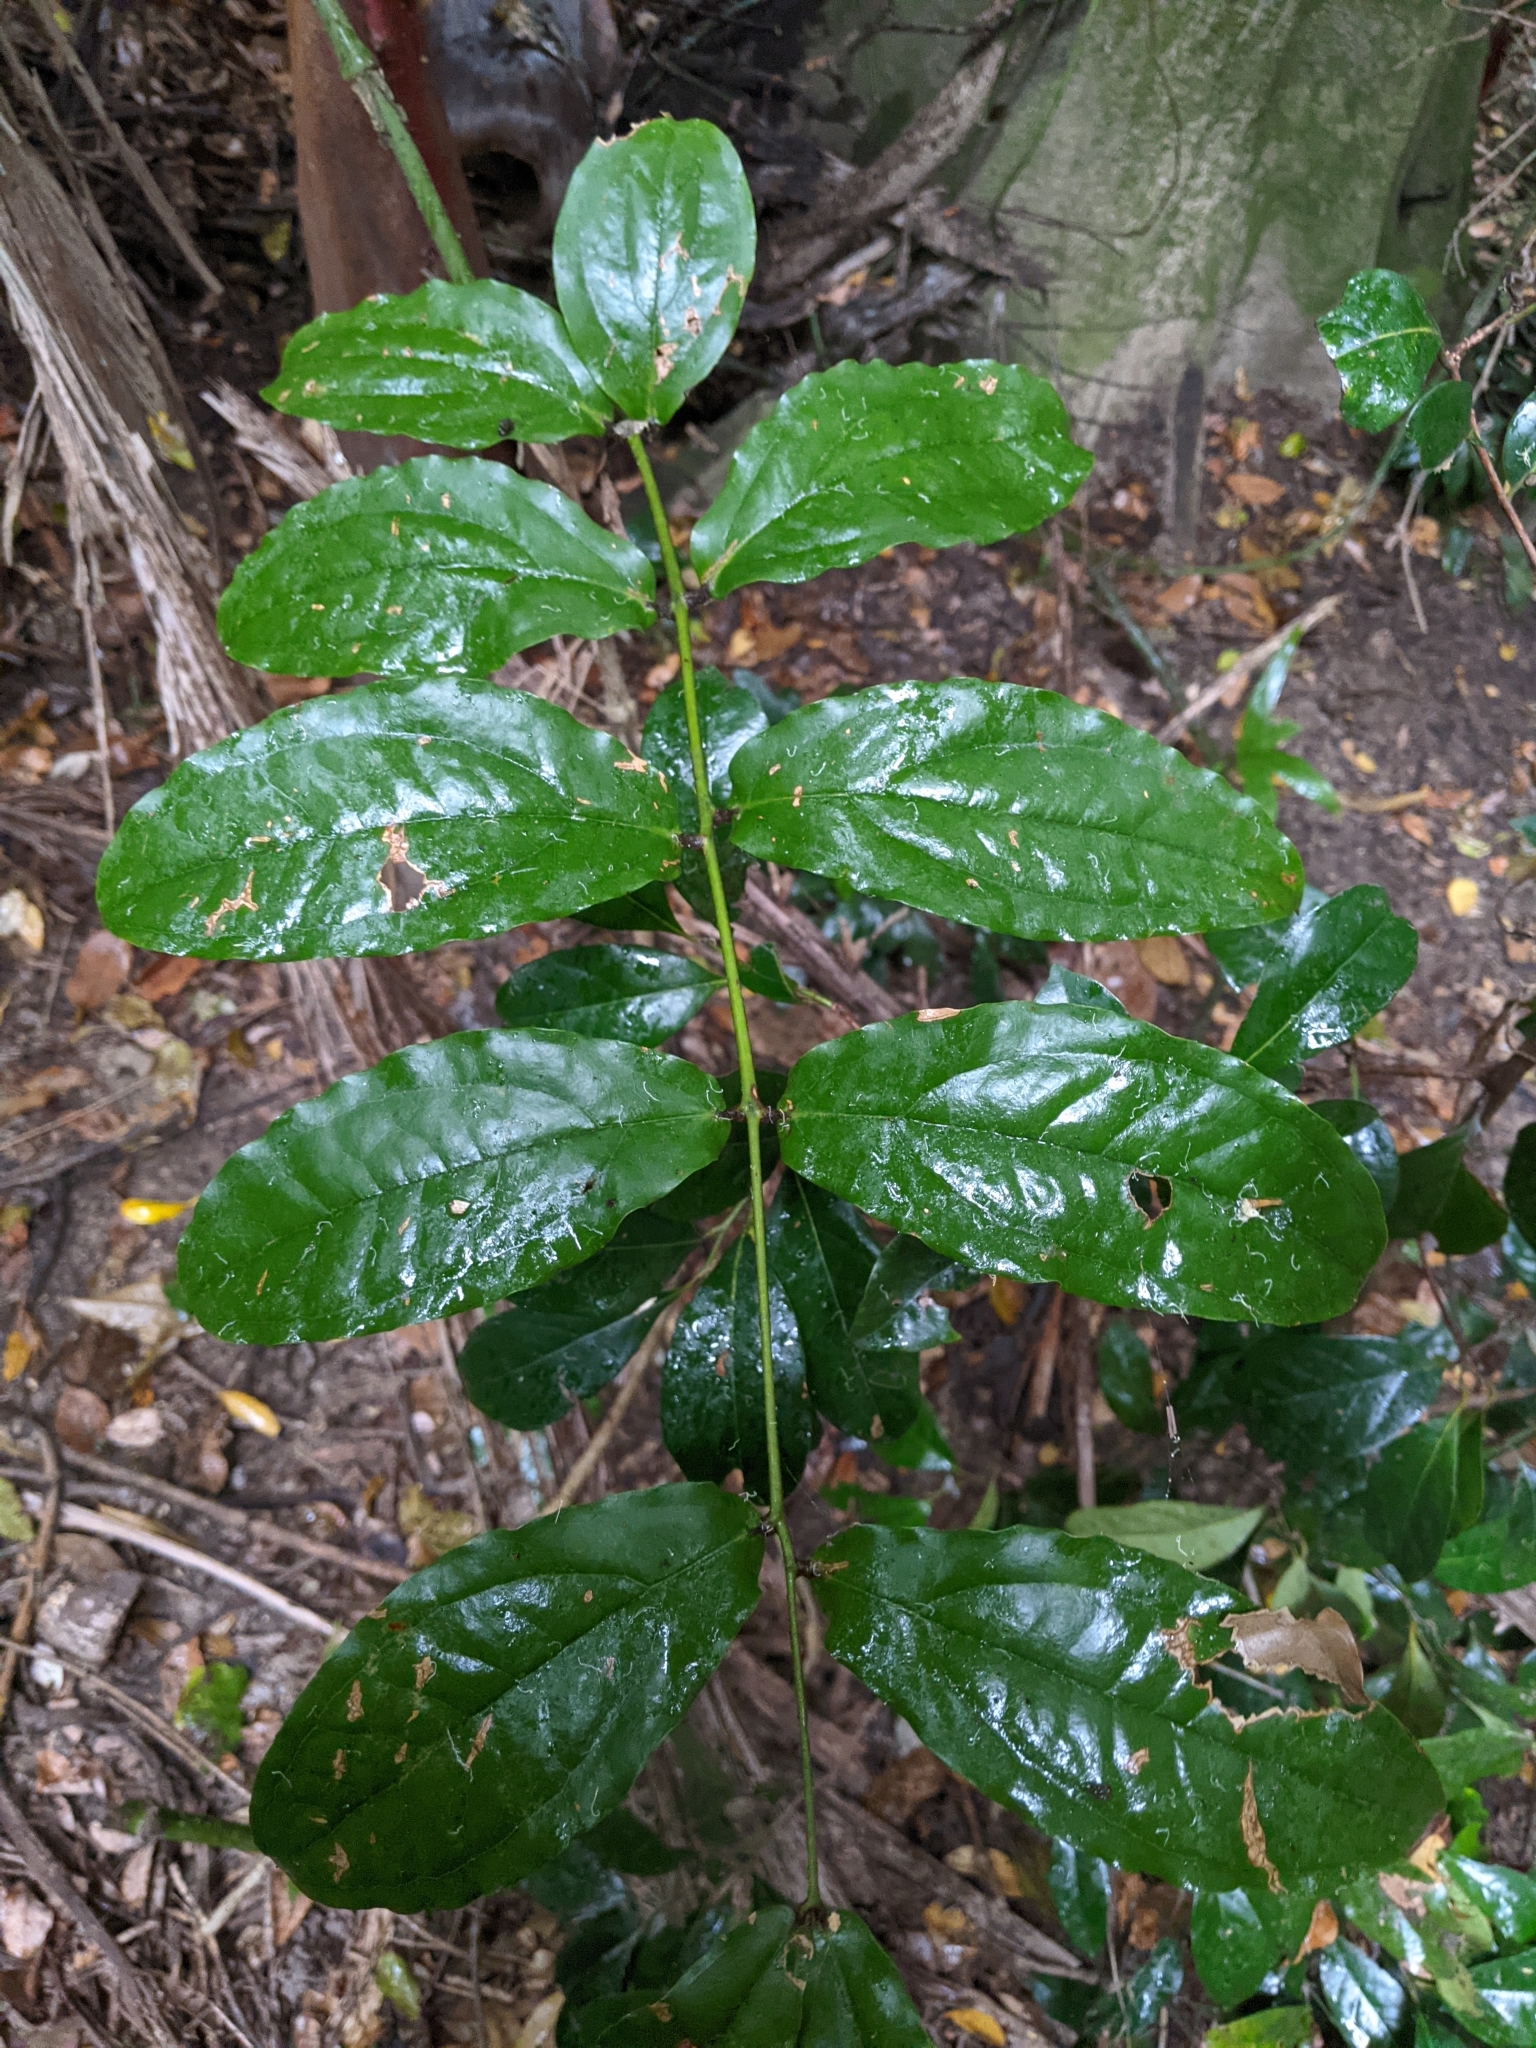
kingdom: Plantae
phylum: Tracheophyta
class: Liliopsida
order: Liliales
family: Ripogonaceae
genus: Ripogonum
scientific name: Ripogonum elseyanum
